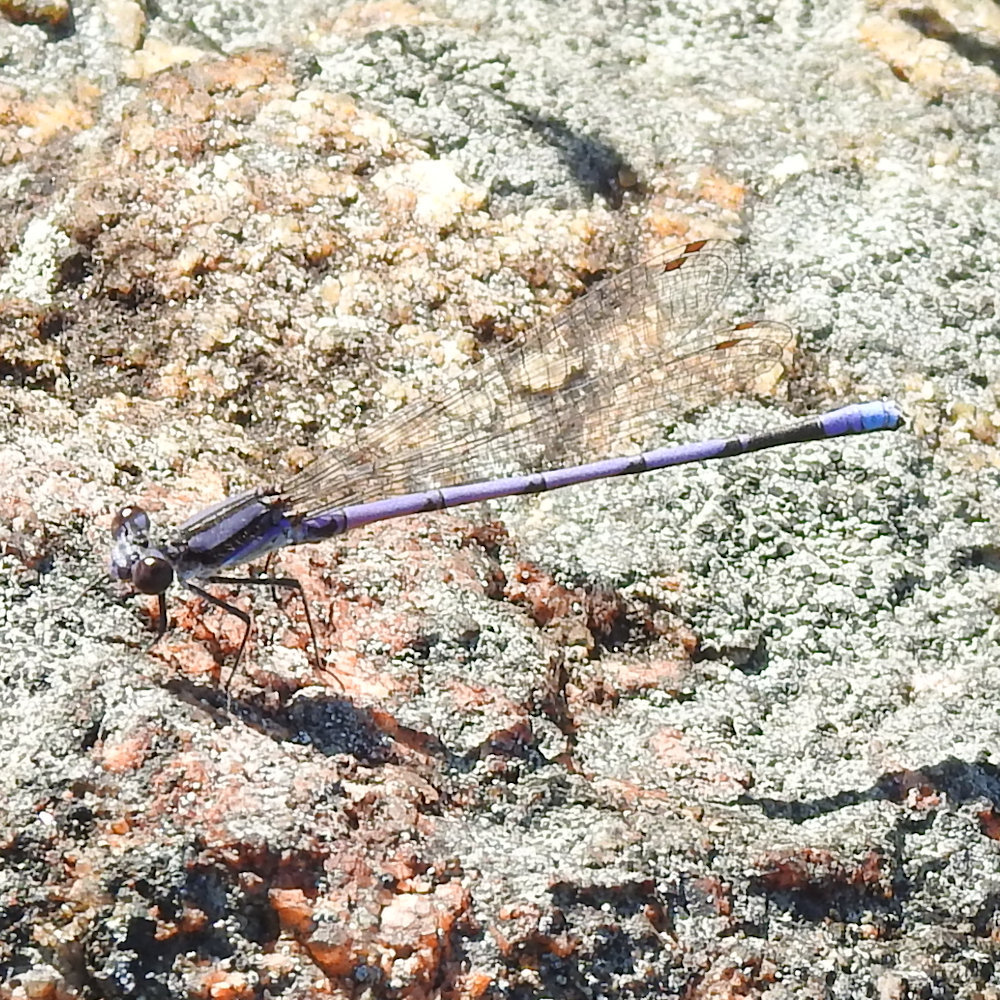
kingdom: Animalia
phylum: Arthropoda
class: Insecta
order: Odonata
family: Coenagrionidae
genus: Argia
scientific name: Argia fumipennis
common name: Variable dancer
